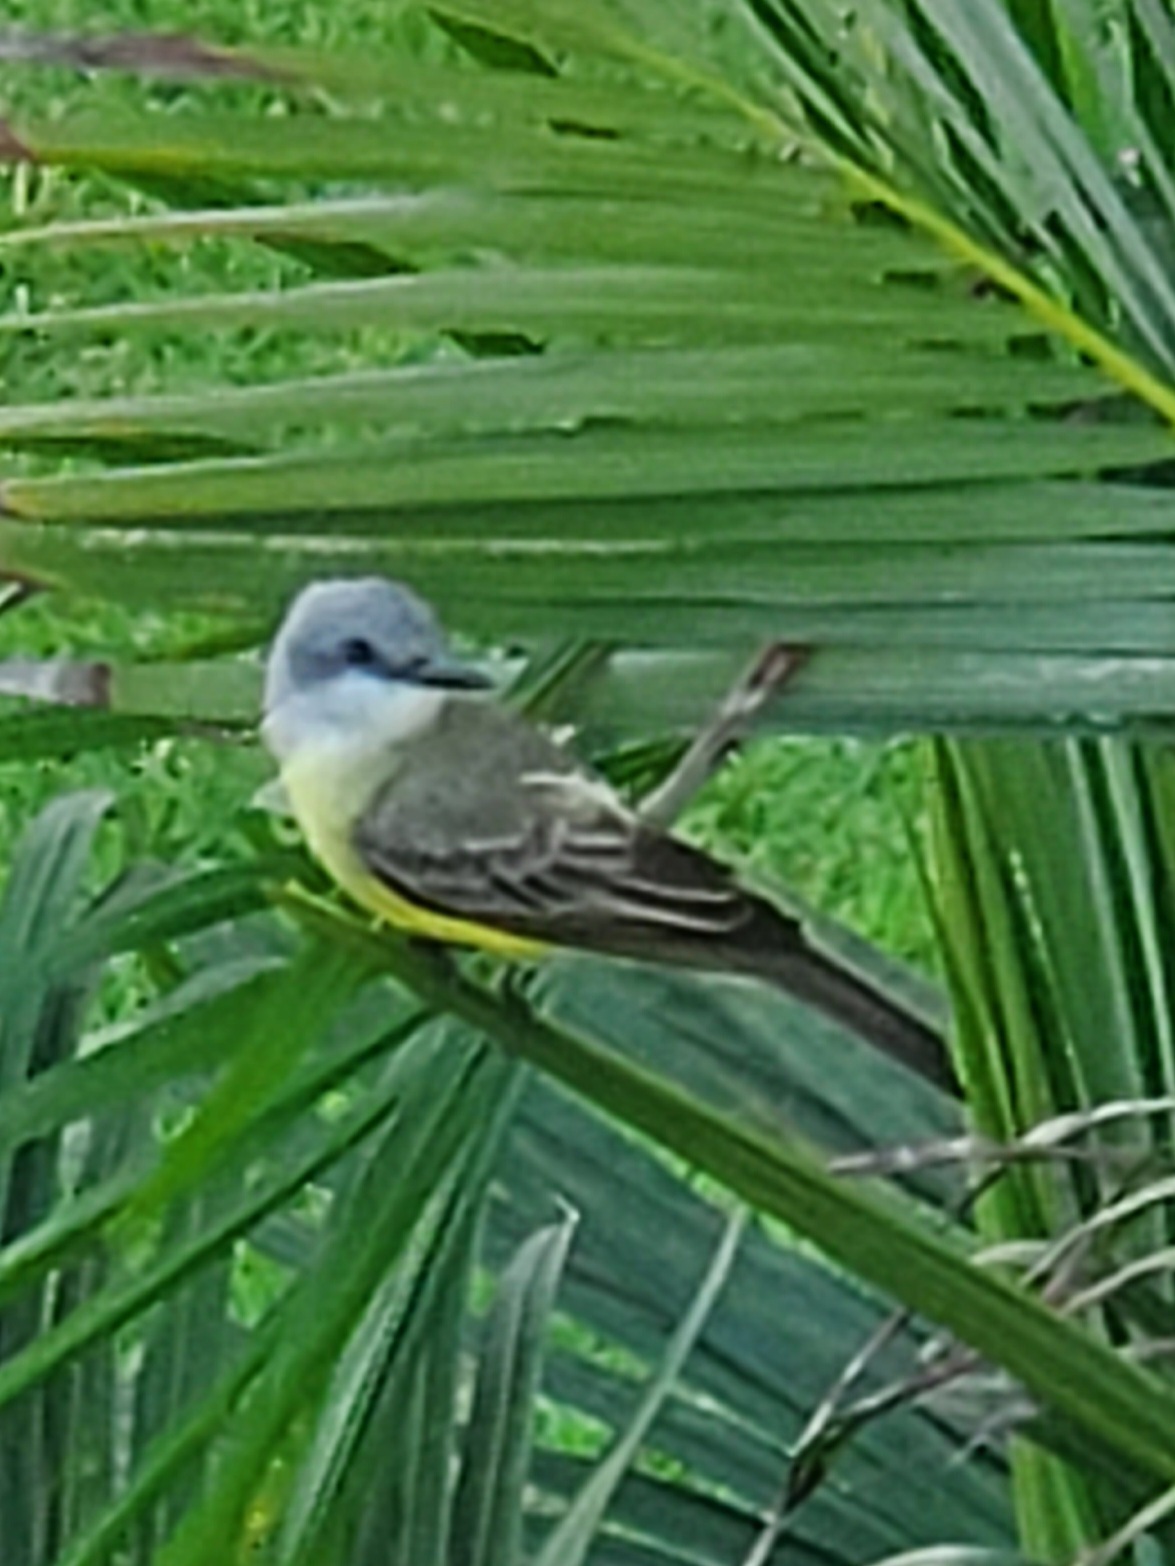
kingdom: Animalia
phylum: Chordata
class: Aves
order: Passeriformes
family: Tyrannidae
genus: Tyrannus
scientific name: Tyrannus melancholicus
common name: Tropical kingbird
